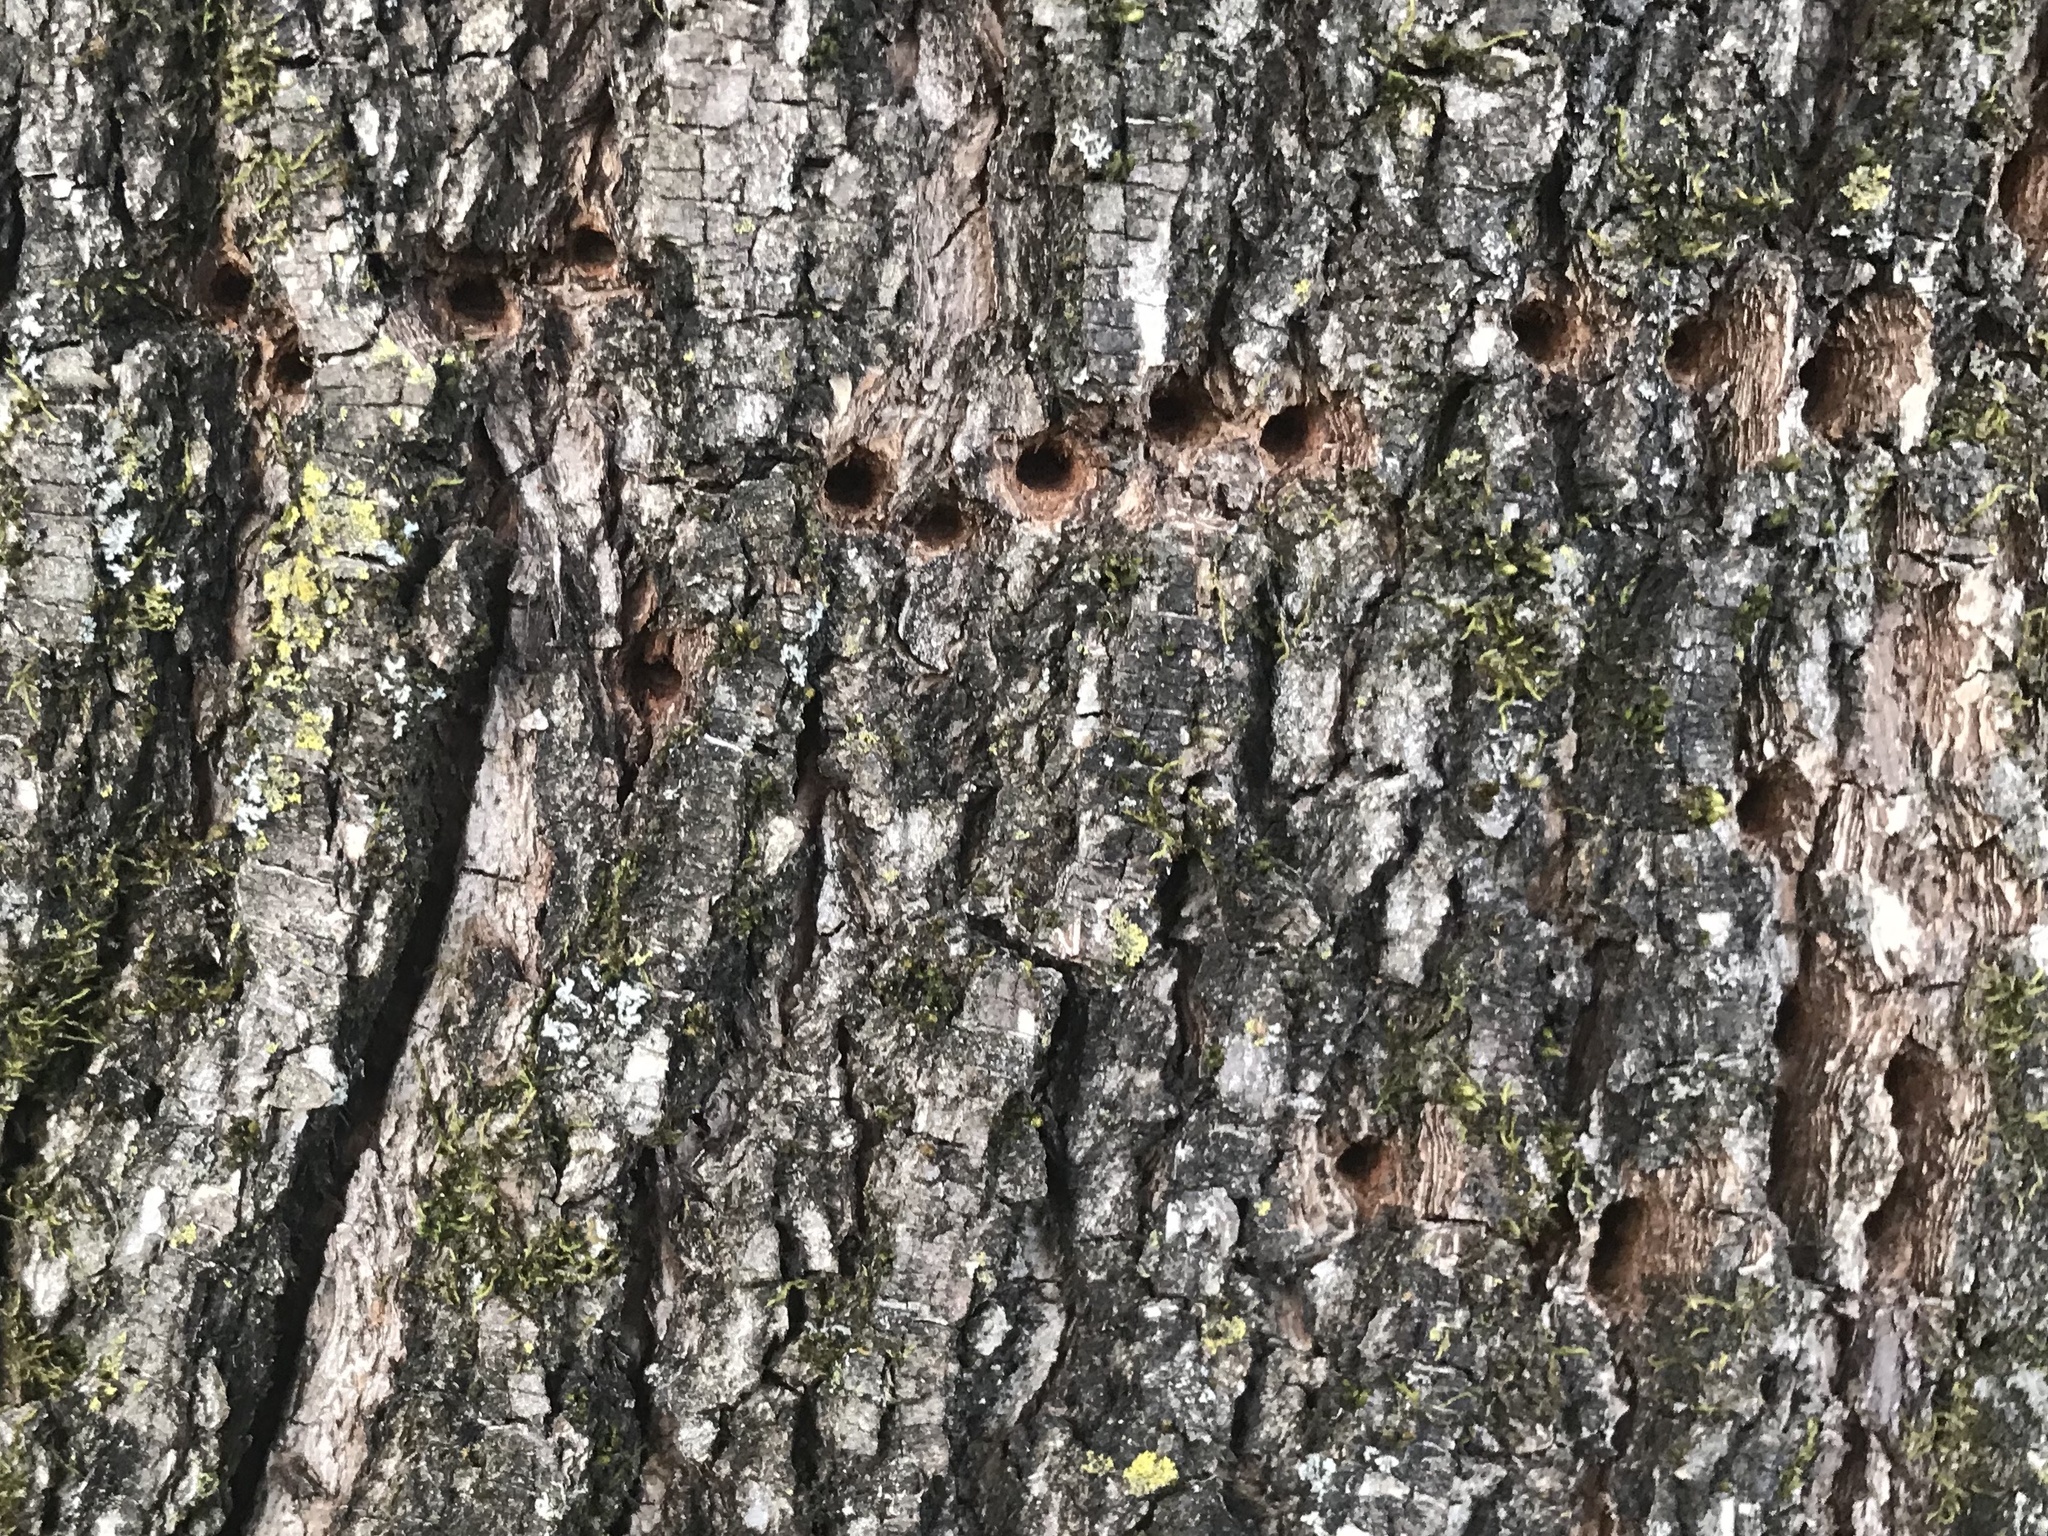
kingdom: Animalia
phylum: Chordata
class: Aves
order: Piciformes
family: Picidae
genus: Sphyrapicus
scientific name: Sphyrapicus varius
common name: Yellow-bellied sapsucker
